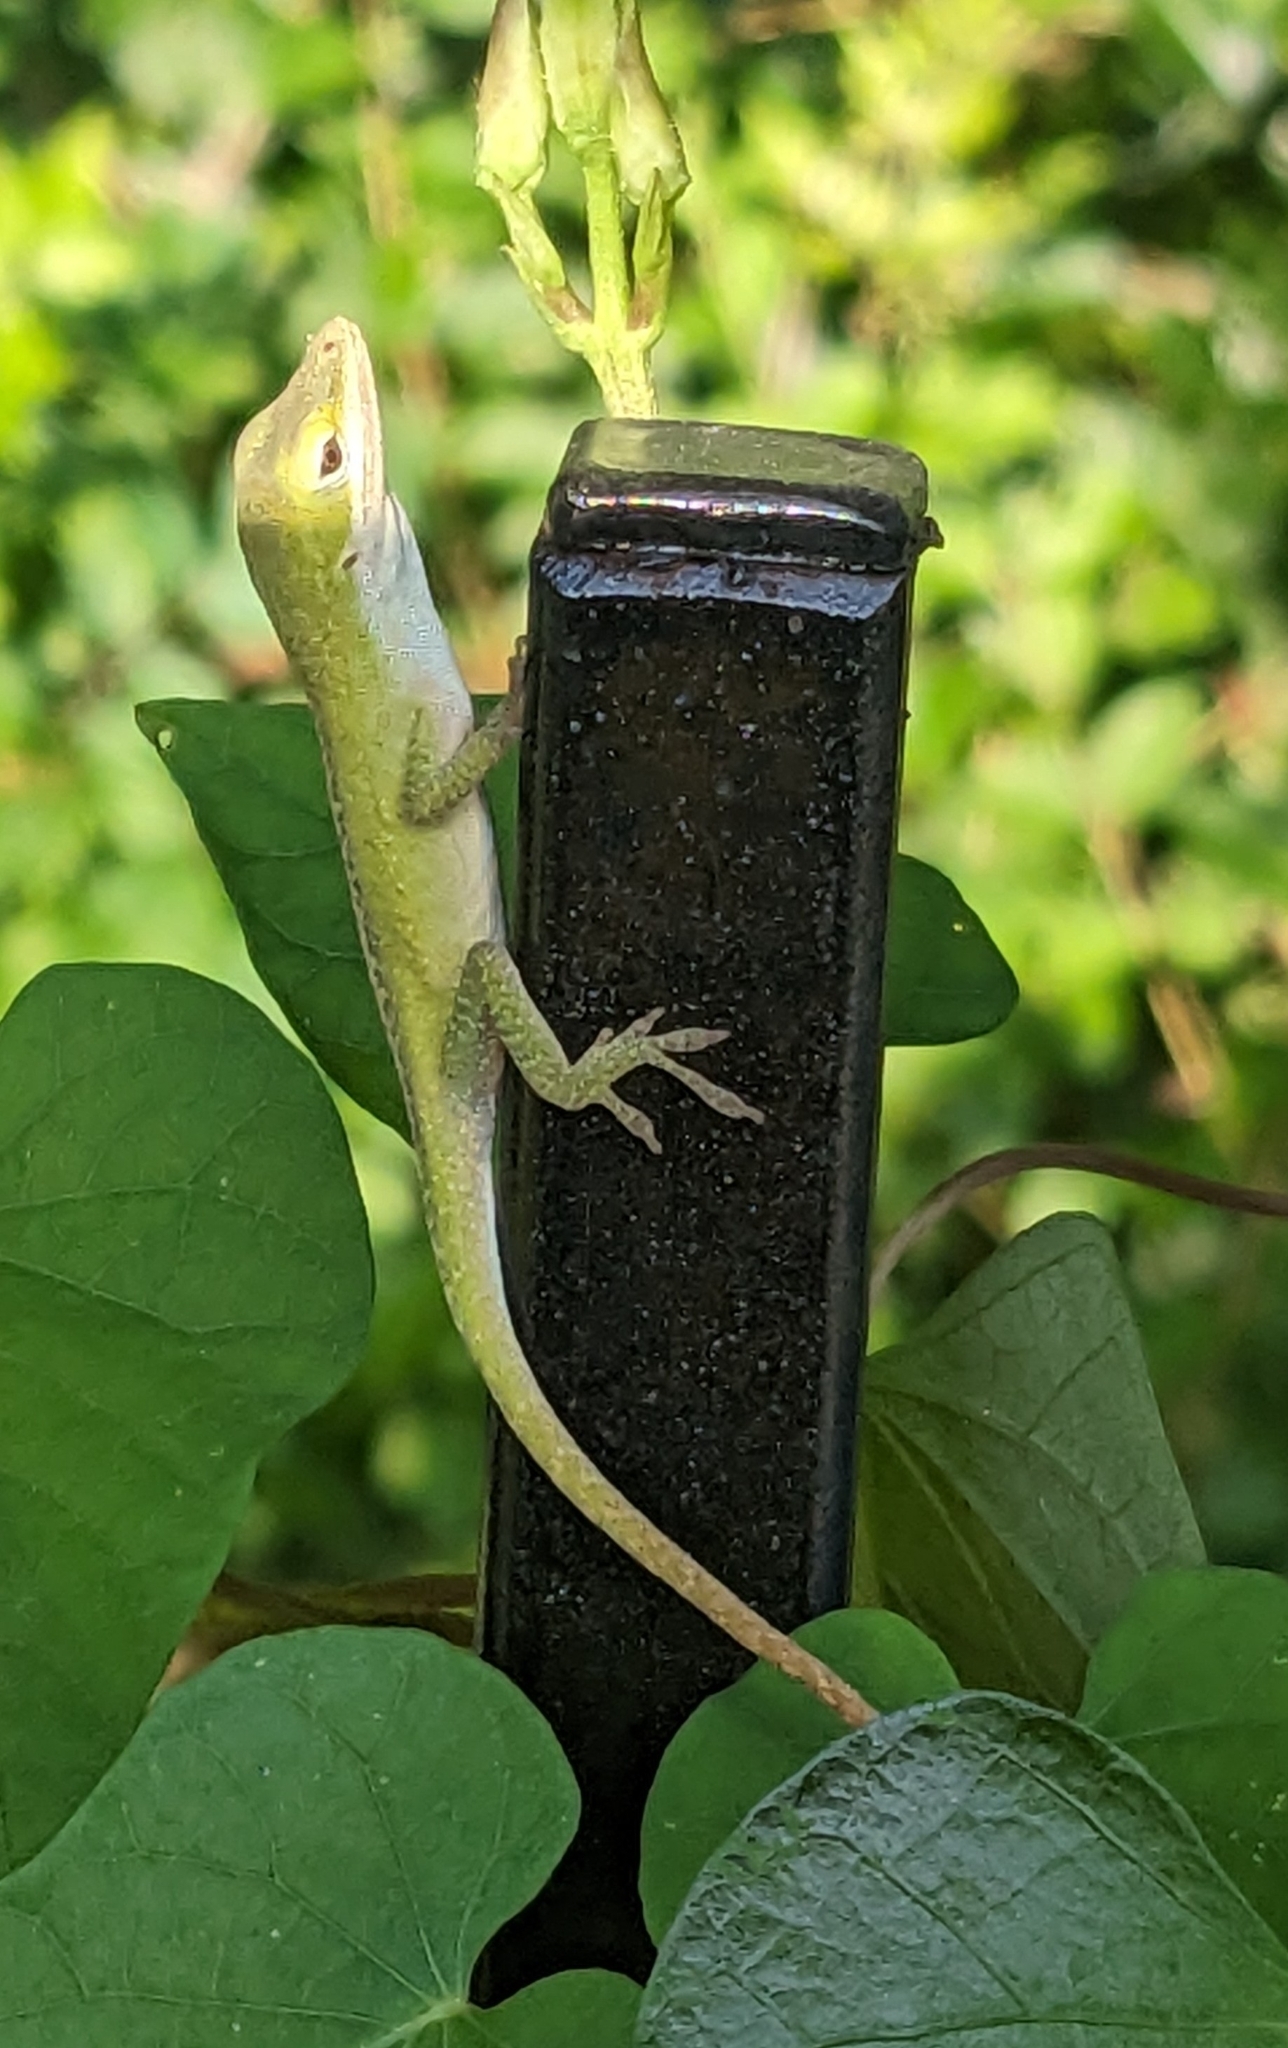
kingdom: Animalia
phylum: Chordata
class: Squamata
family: Dactyloidae
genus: Anolis
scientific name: Anolis carolinensis
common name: Green anole
